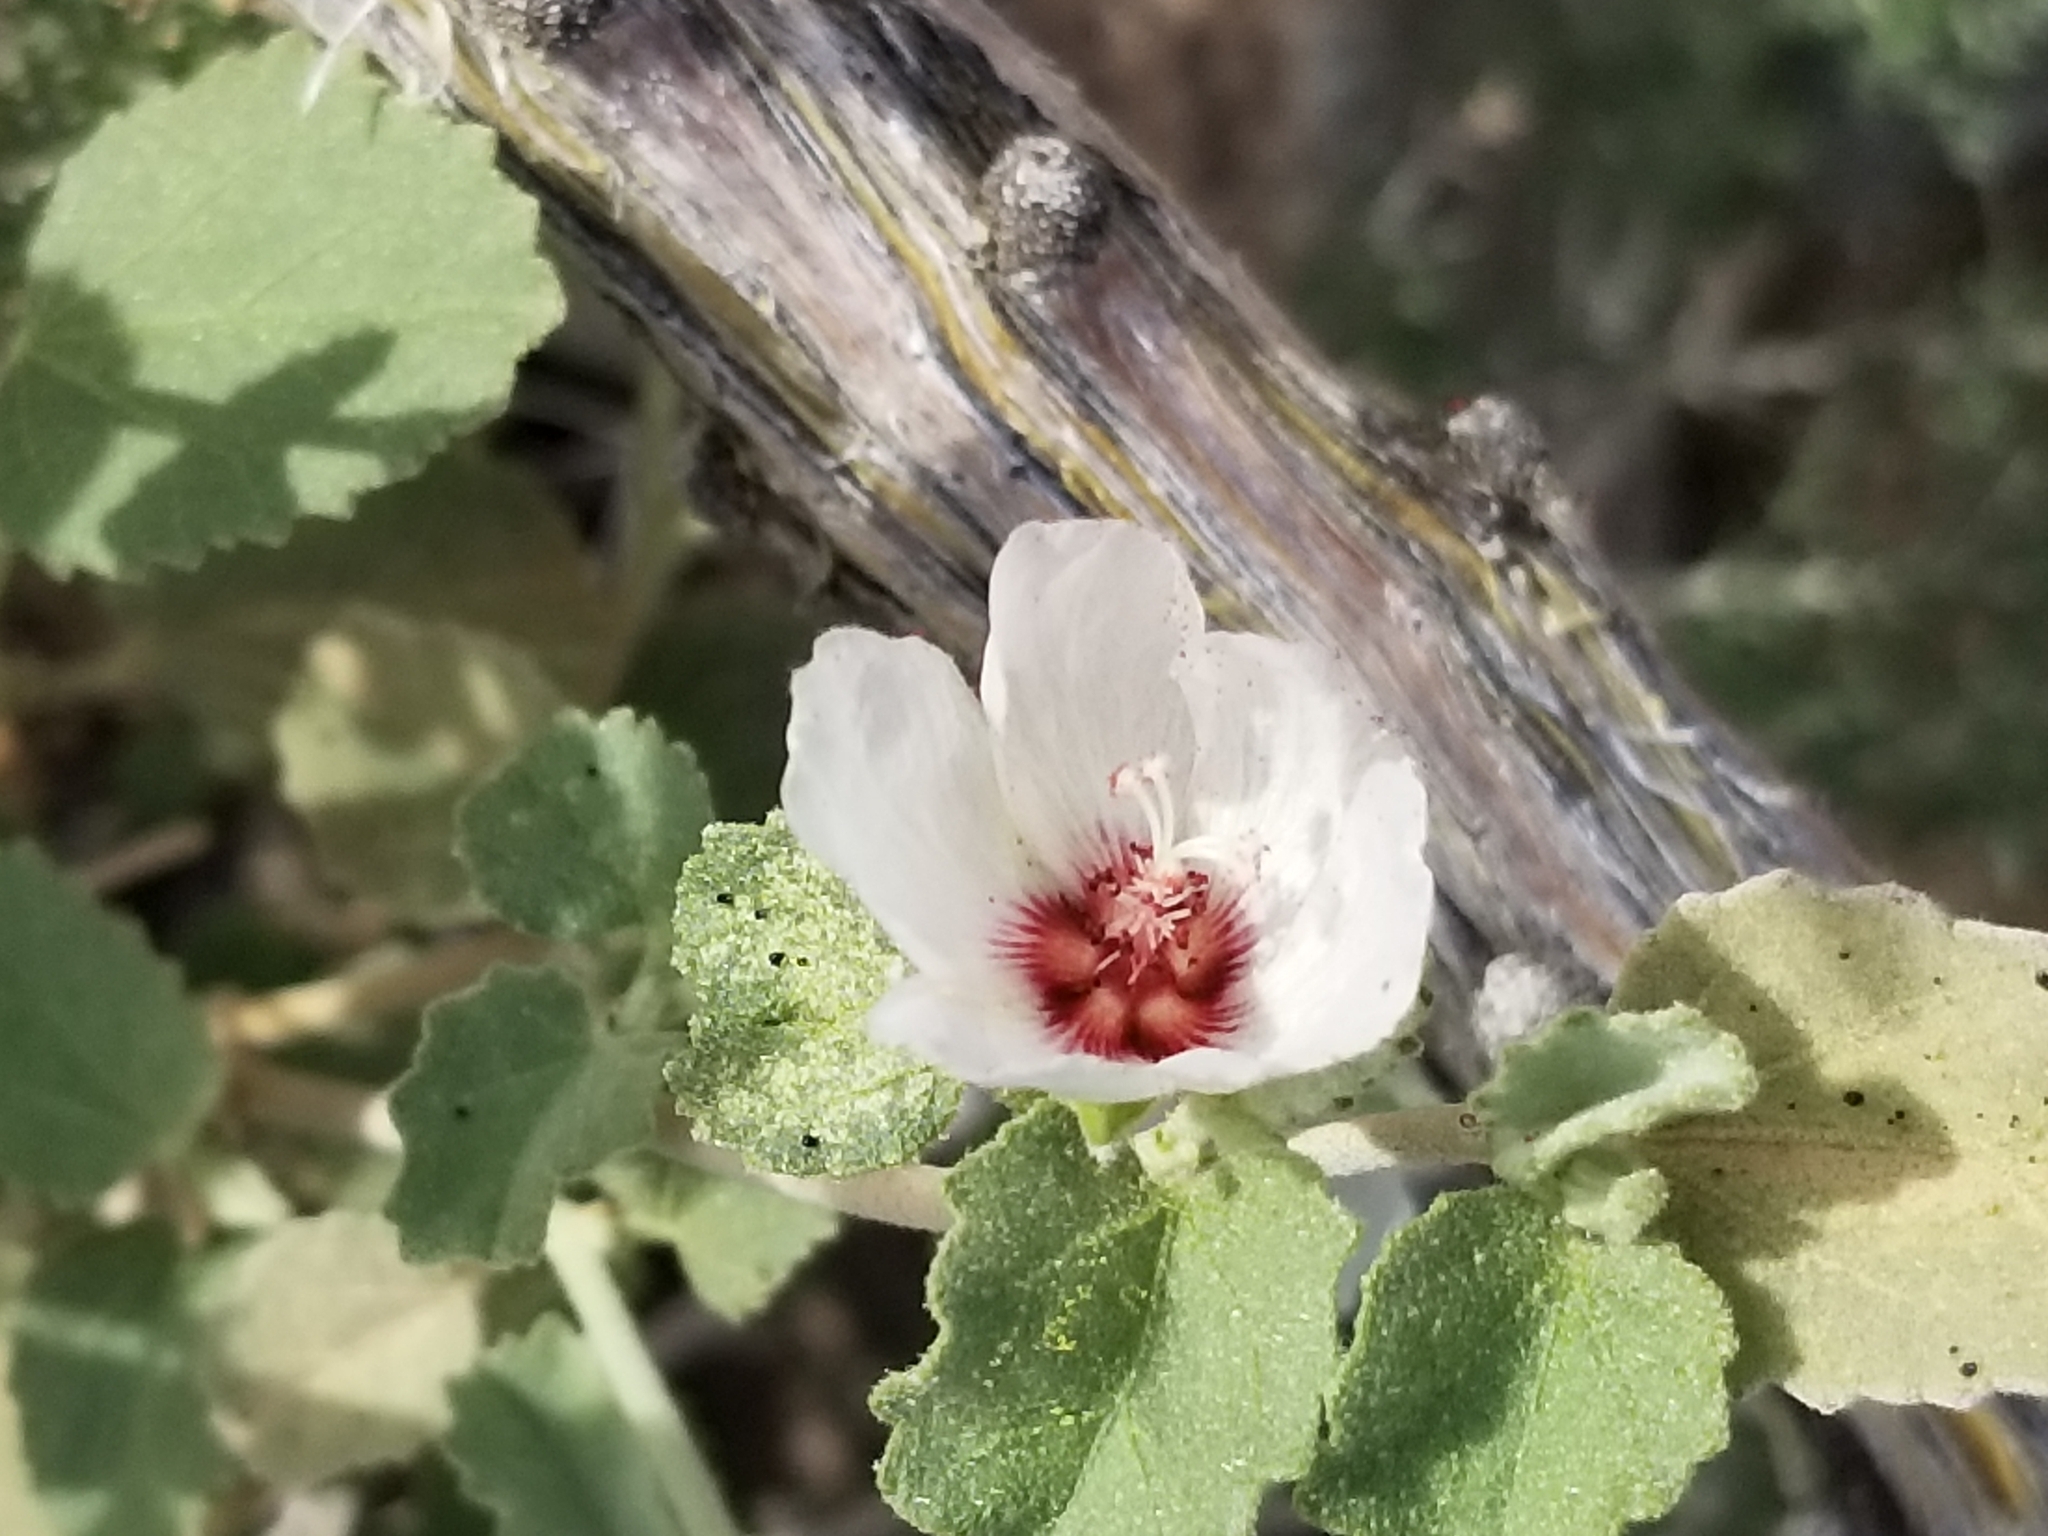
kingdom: Plantae
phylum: Tracheophyta
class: Magnoliopsida
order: Malvales
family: Malvaceae
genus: Hibiscus
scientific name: Hibiscus denudatus
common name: Paleface
